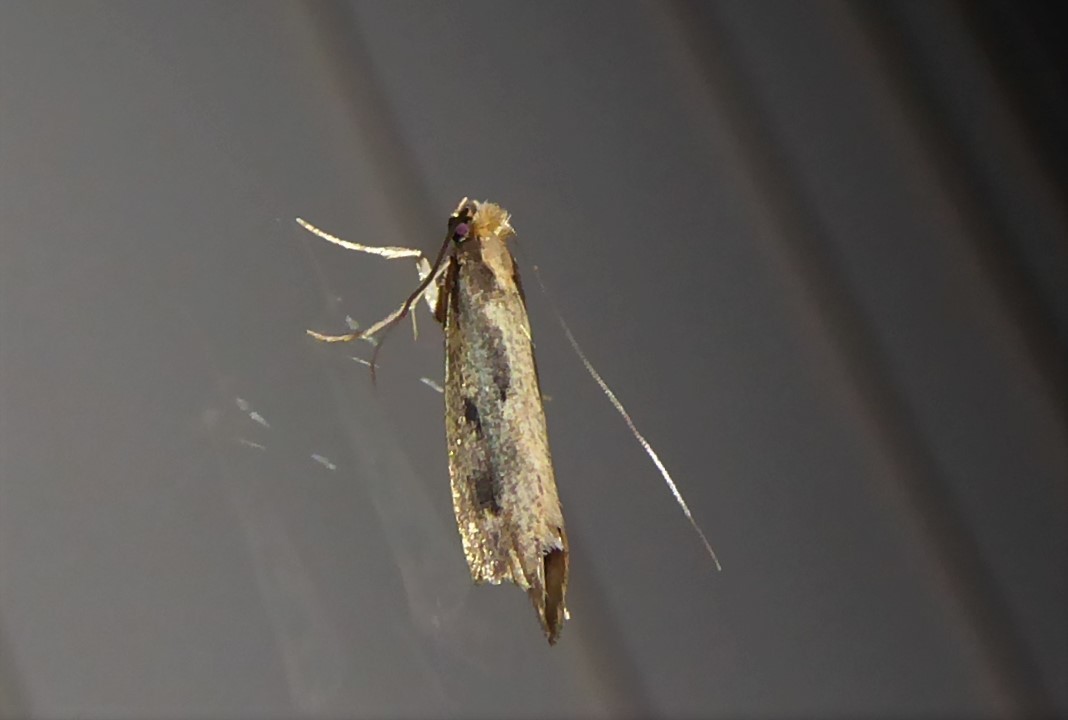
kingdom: Animalia
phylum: Arthropoda
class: Insecta
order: Lepidoptera
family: Tineidae
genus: Tinea
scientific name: Tinea pallescentella
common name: Large pale clothes moth
